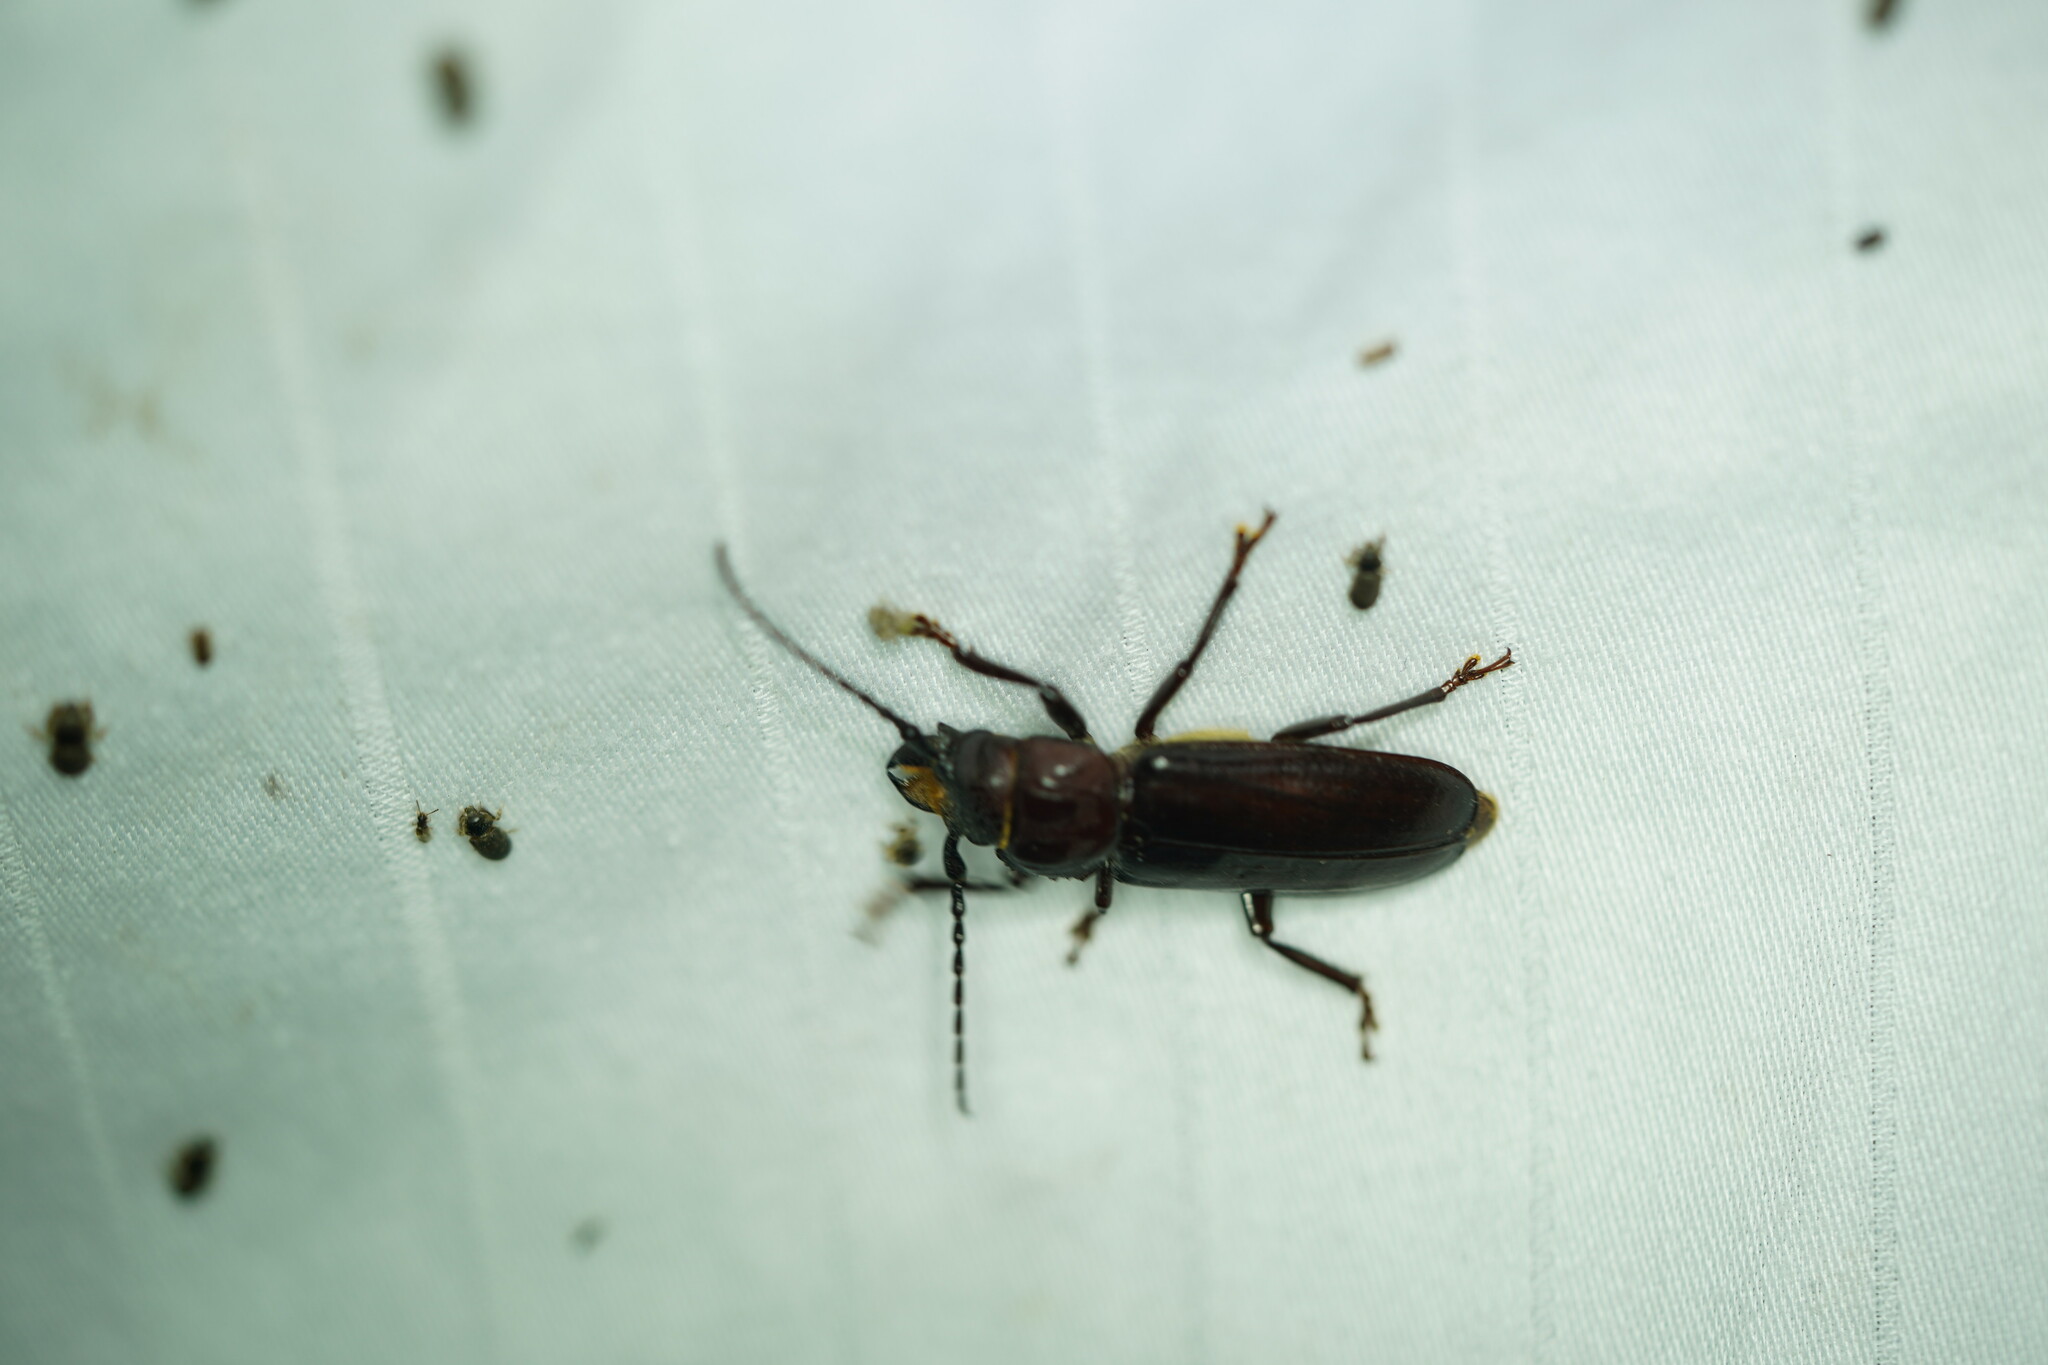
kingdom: Animalia
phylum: Arthropoda
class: Insecta
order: Coleoptera
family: Cerambycidae
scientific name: Cerambycidae
